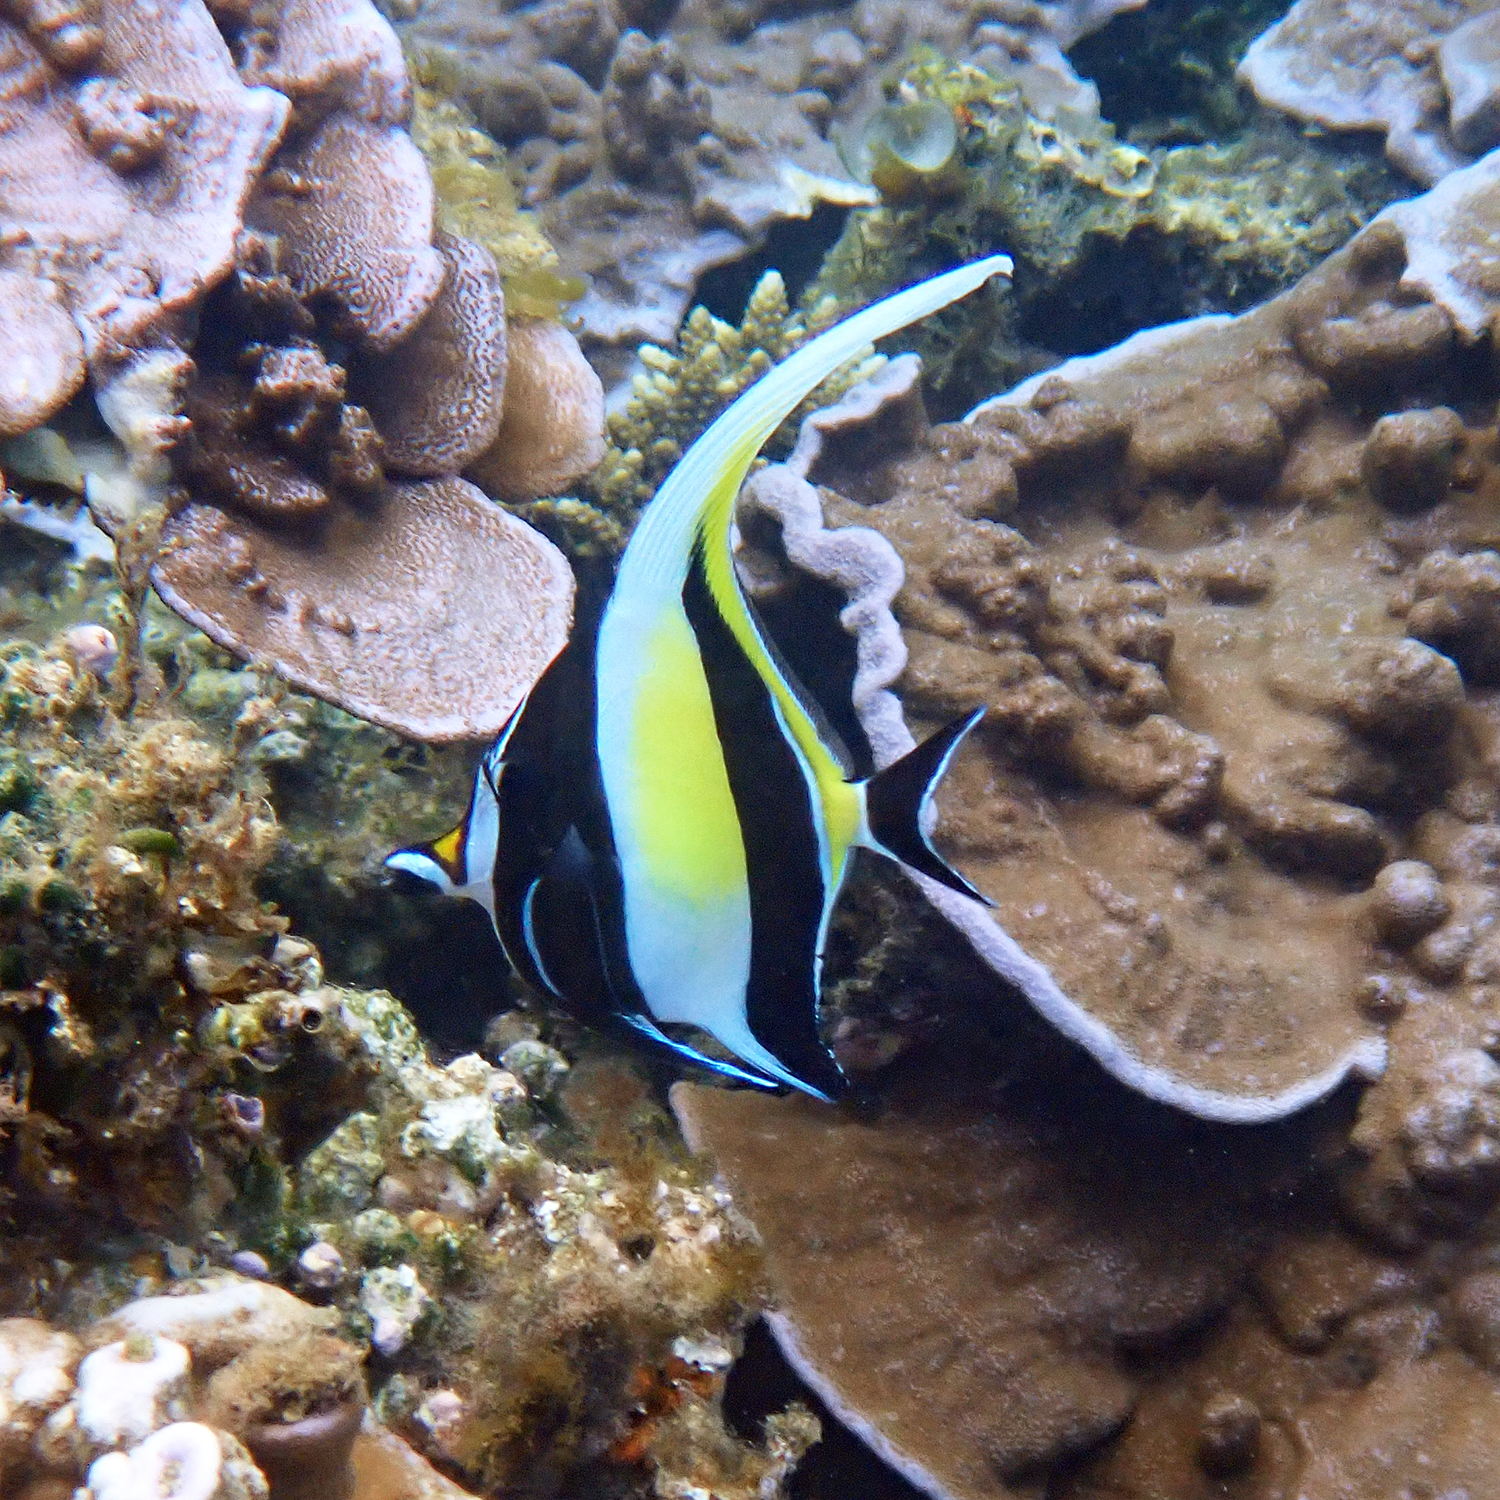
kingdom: Animalia
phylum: Chordata
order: Perciformes
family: Zanclidae
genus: Zanclus
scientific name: Zanclus cornutus
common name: Moorish idol
